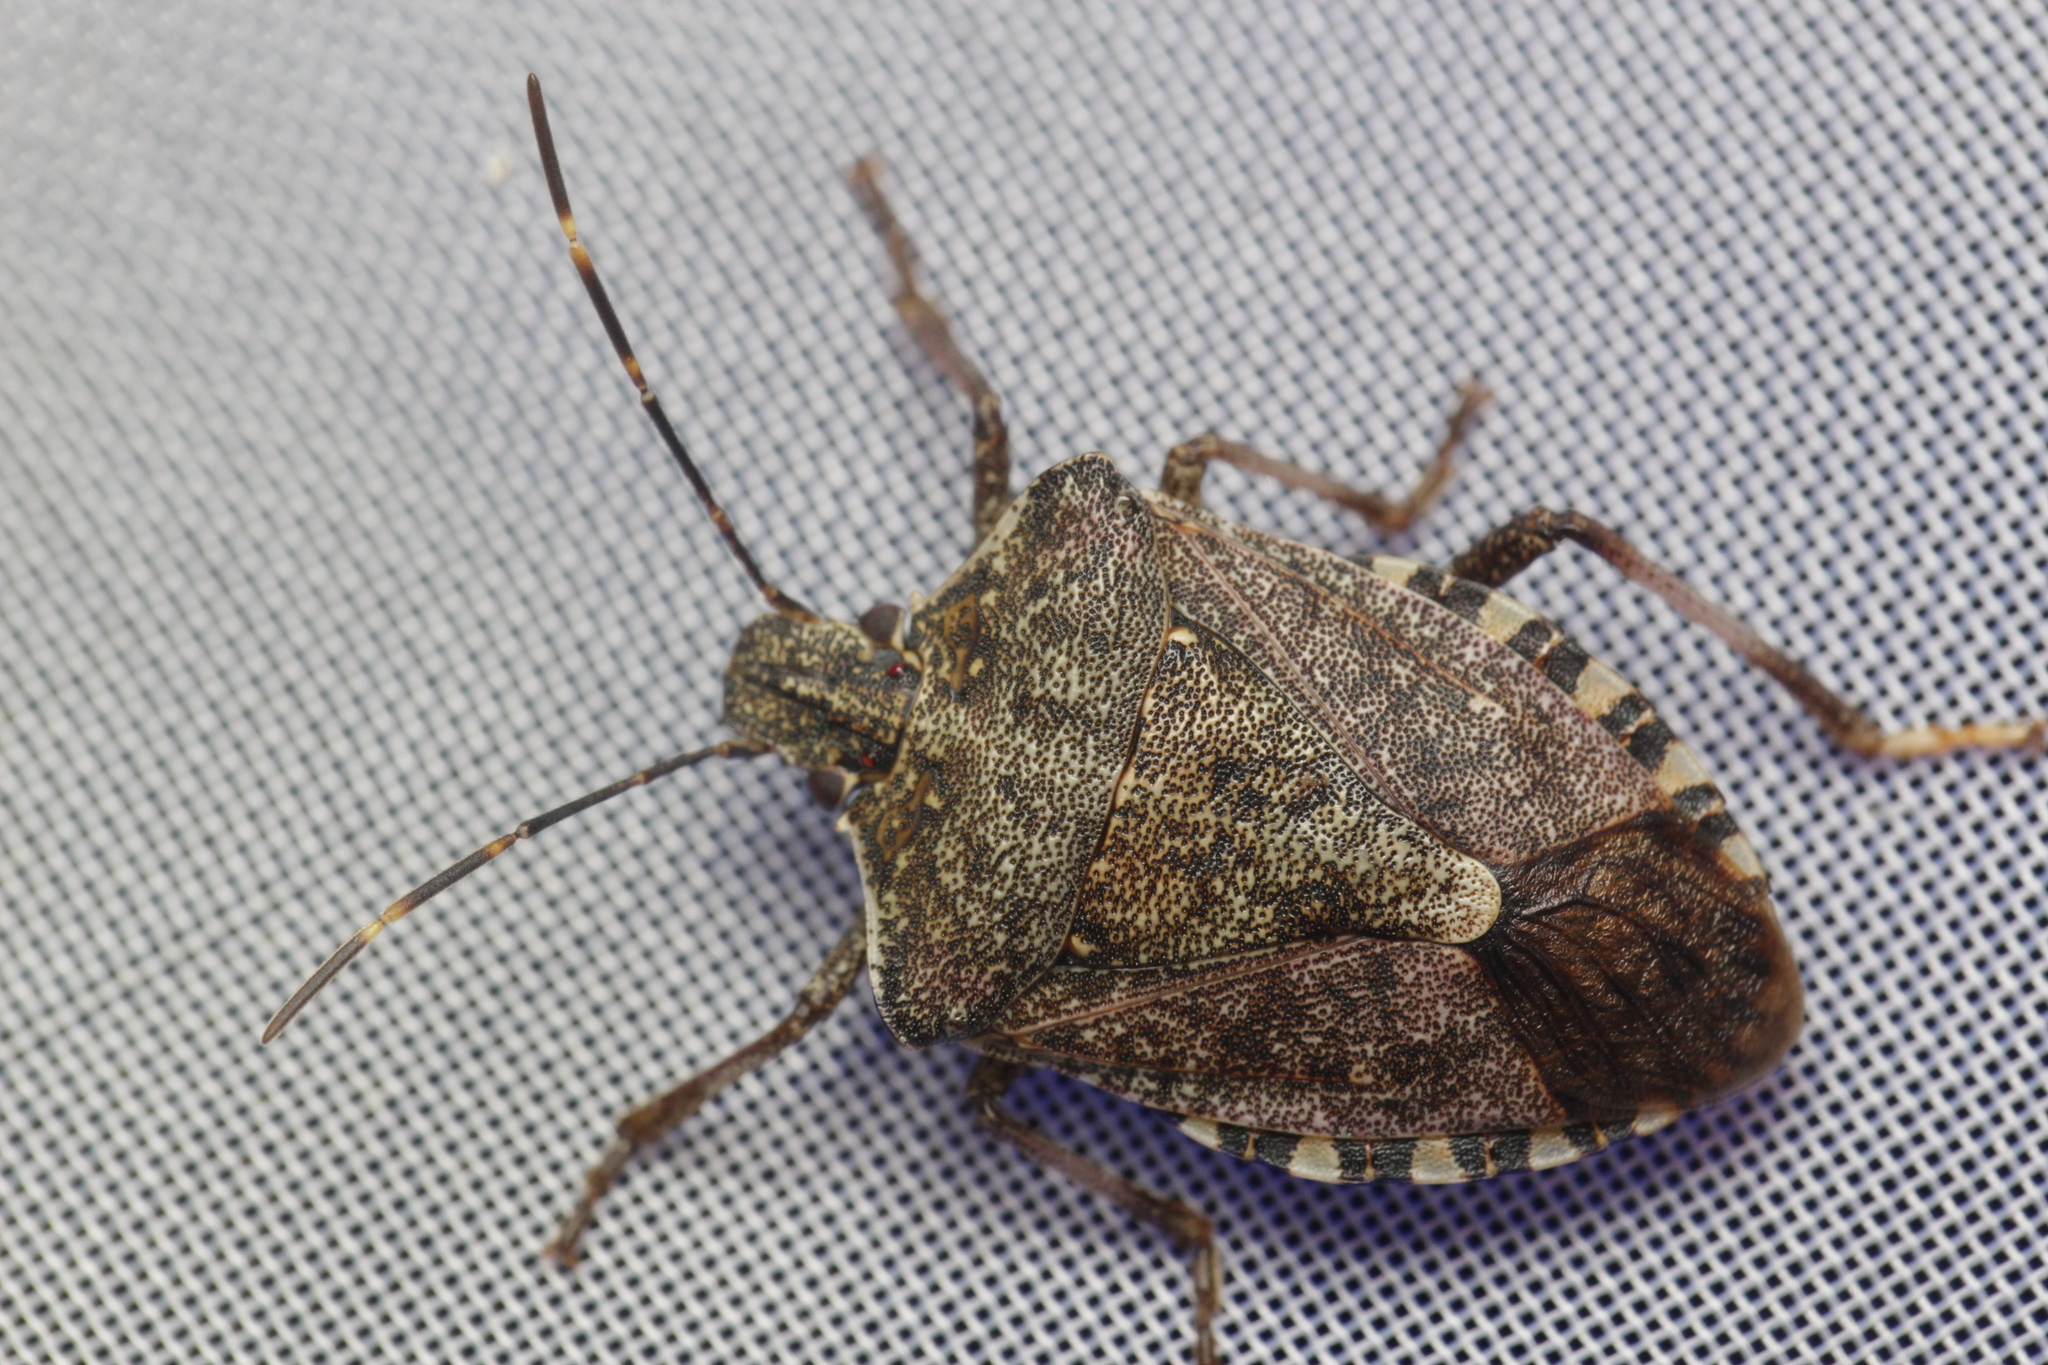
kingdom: Animalia
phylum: Arthropoda
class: Insecta
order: Hemiptera
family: Pentatomidae
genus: Halyomorpha
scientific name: Halyomorpha halys
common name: Brown marmorated stink bug
